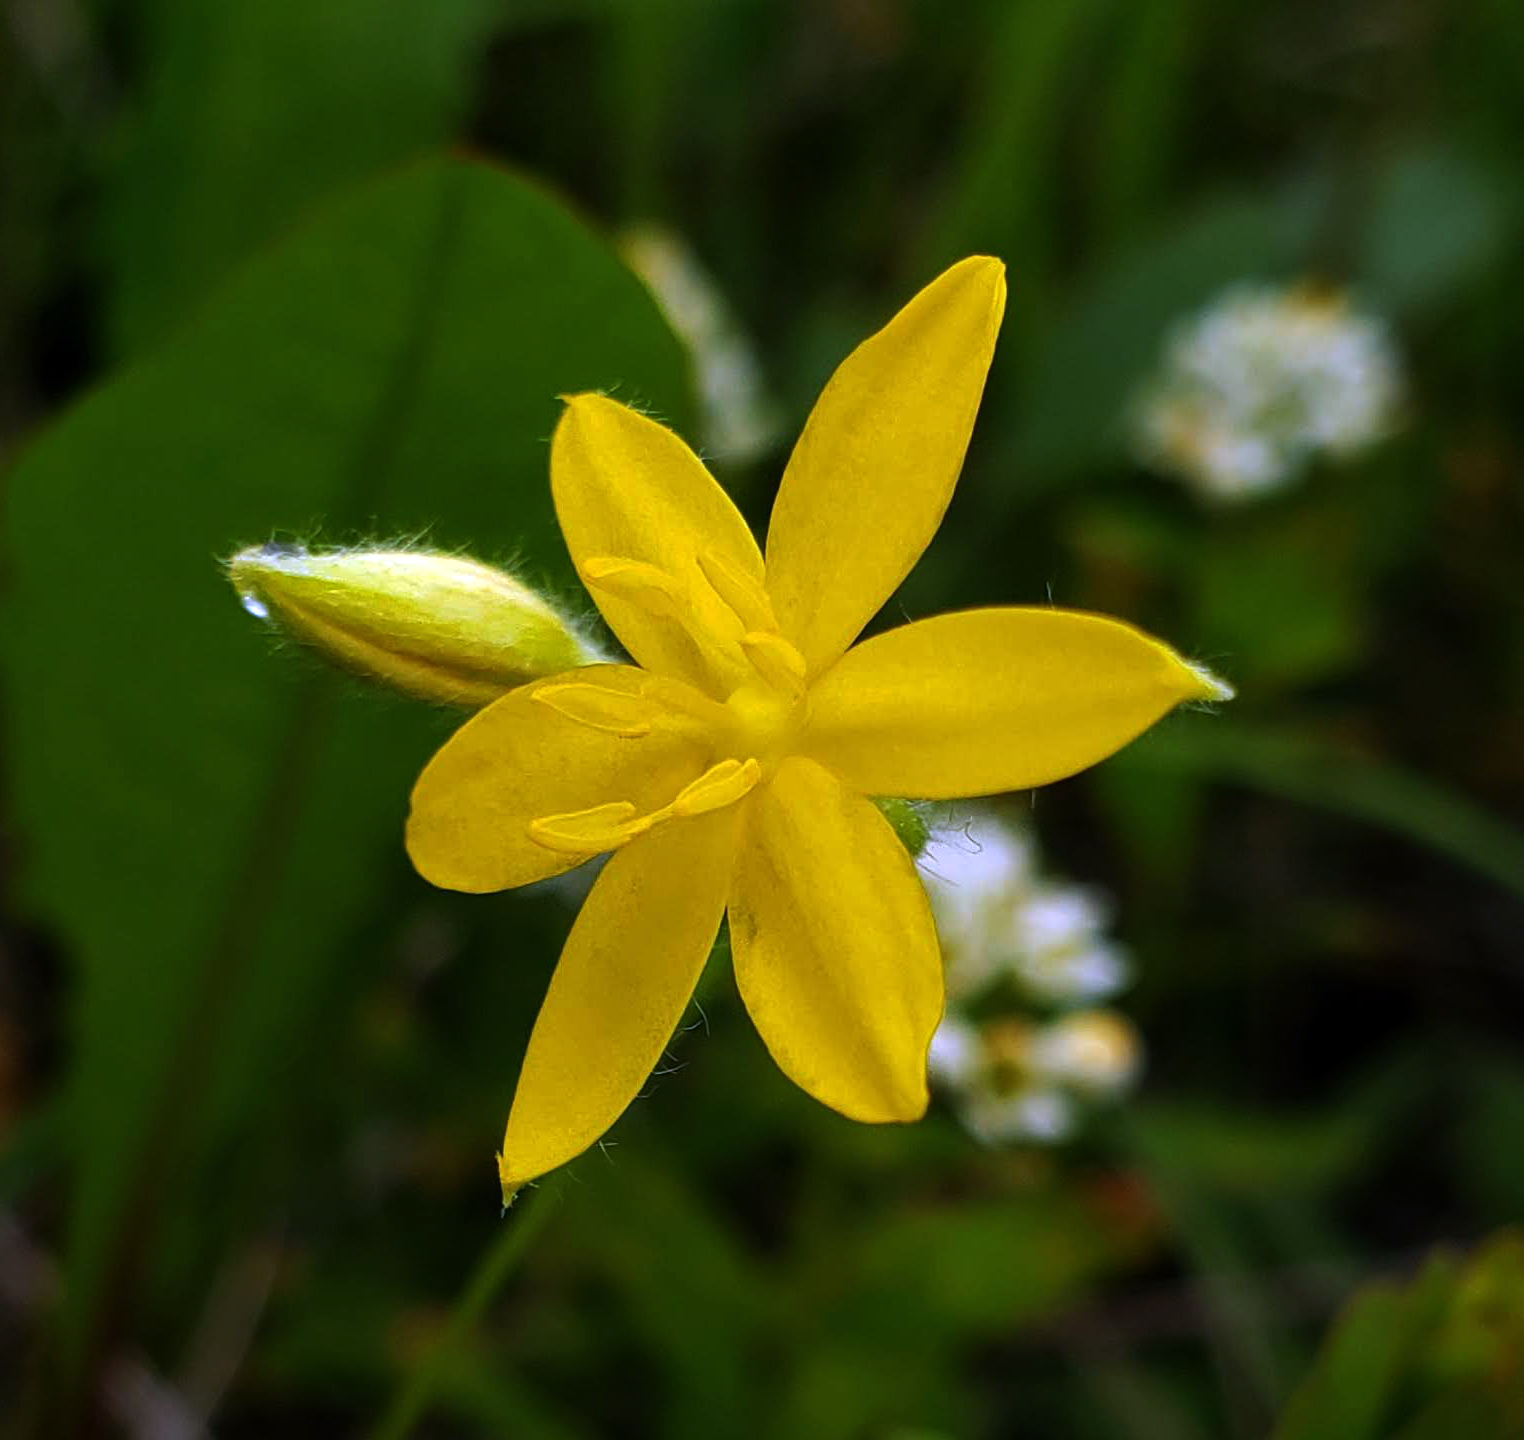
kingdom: Plantae
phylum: Tracheophyta
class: Liliopsida
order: Asparagales
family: Hypoxidaceae
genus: Hypoxis
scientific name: Hypoxis hirsuta
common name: Common goldstar
